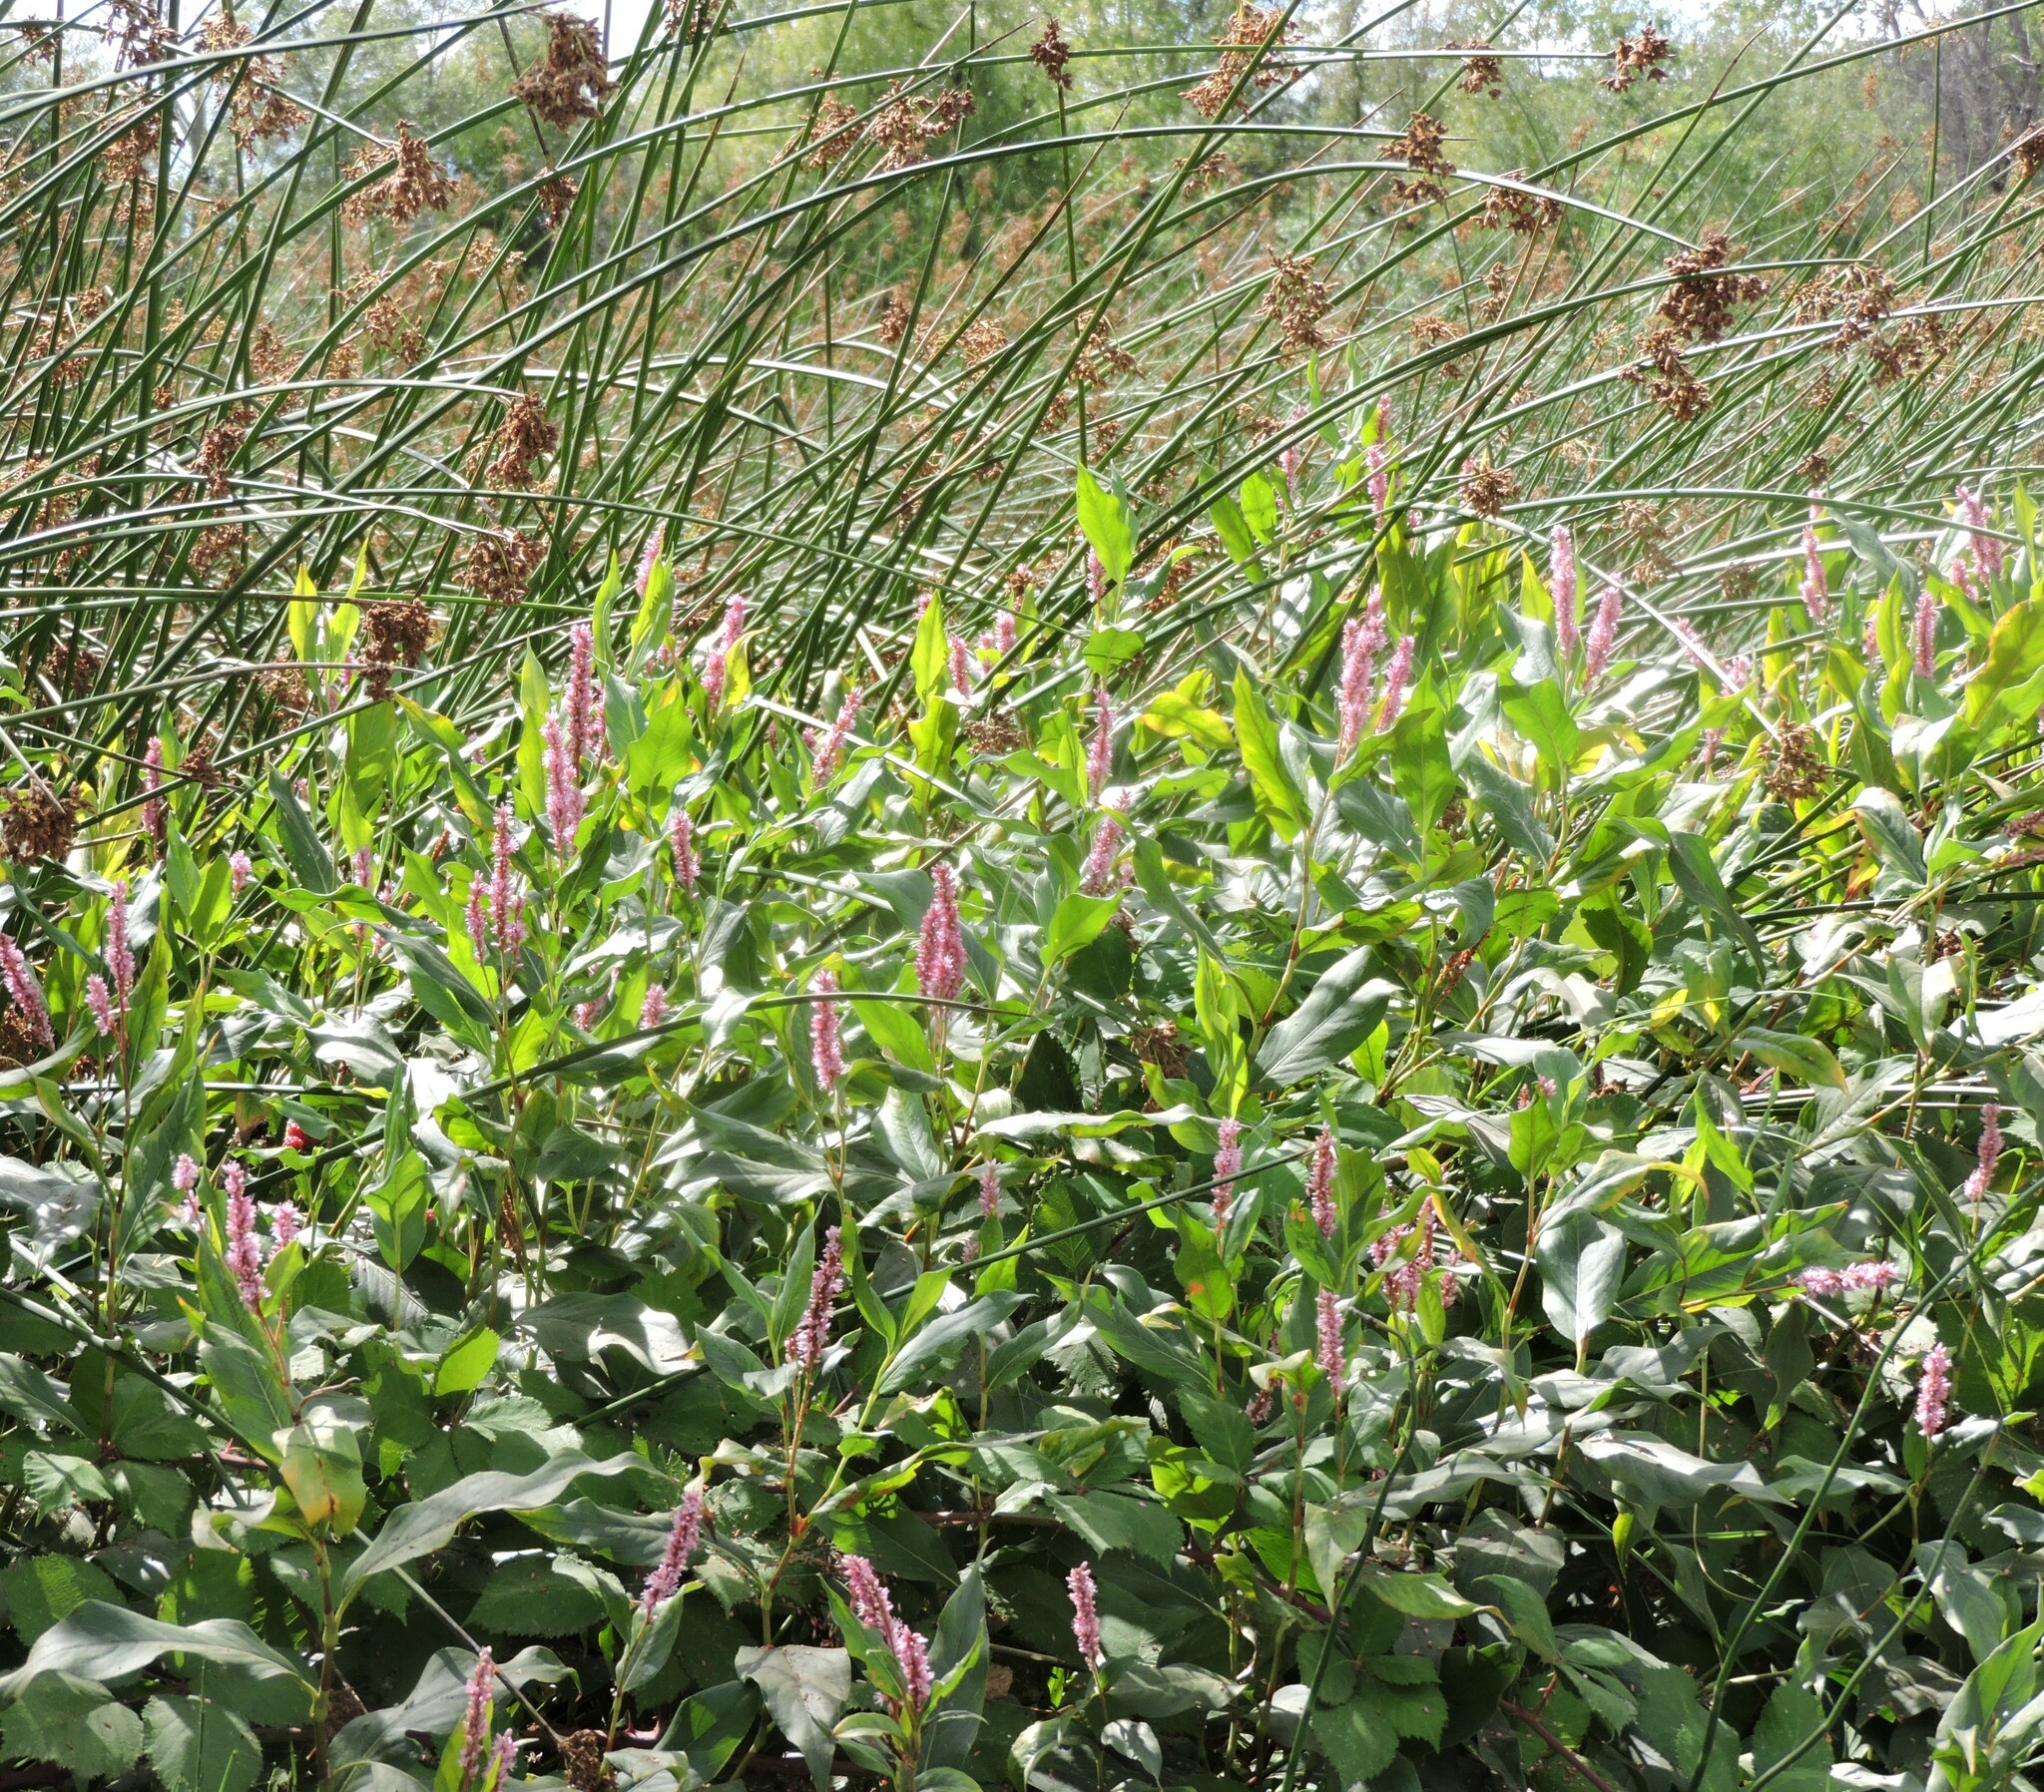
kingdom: Plantae
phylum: Tracheophyta
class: Magnoliopsida
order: Caryophyllales
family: Polygonaceae
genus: Persicaria
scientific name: Persicaria amphibia
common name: Amphibious bistort
